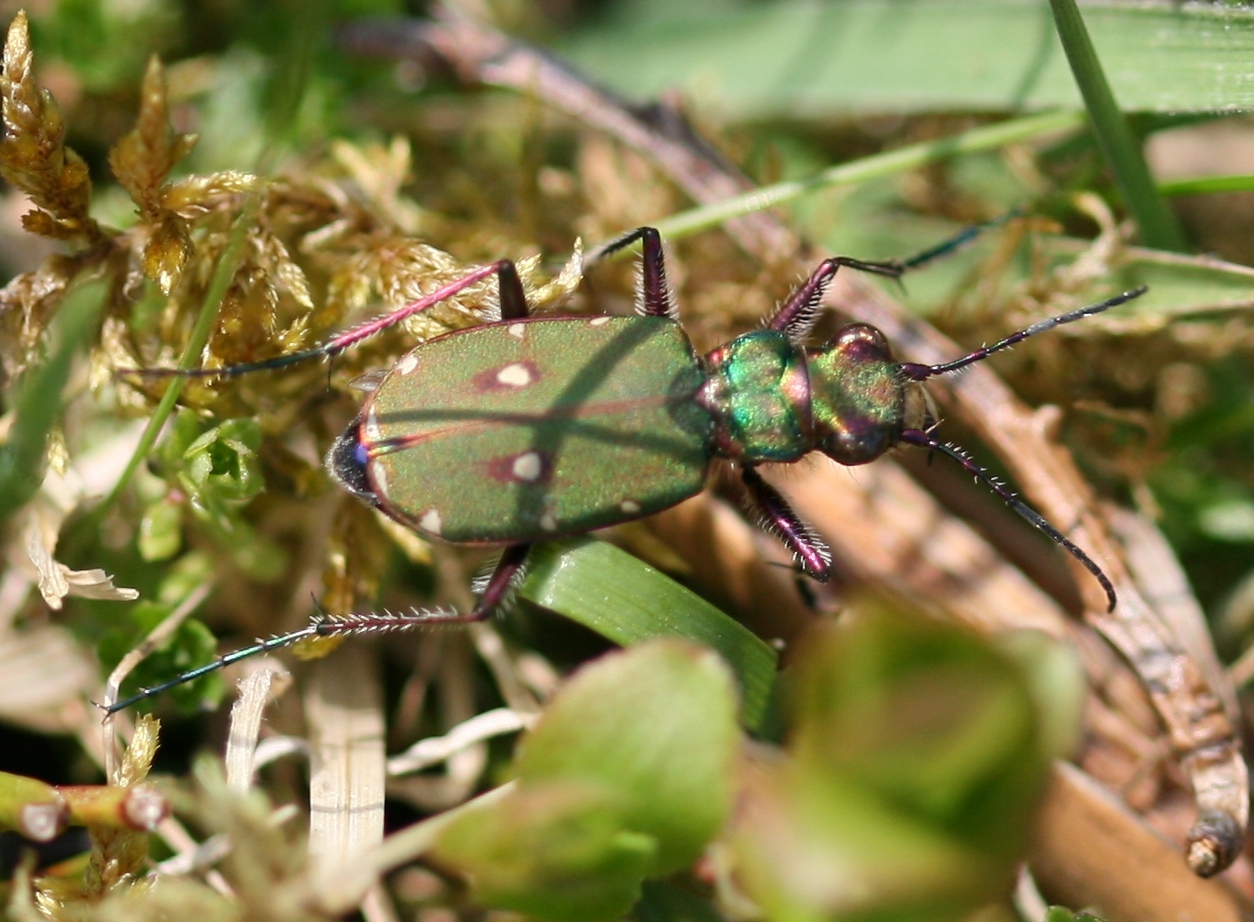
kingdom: Animalia
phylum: Arthropoda
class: Insecta
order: Coleoptera
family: Carabidae
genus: Cicindela
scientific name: Cicindela campestris
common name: Common tiger beetle
